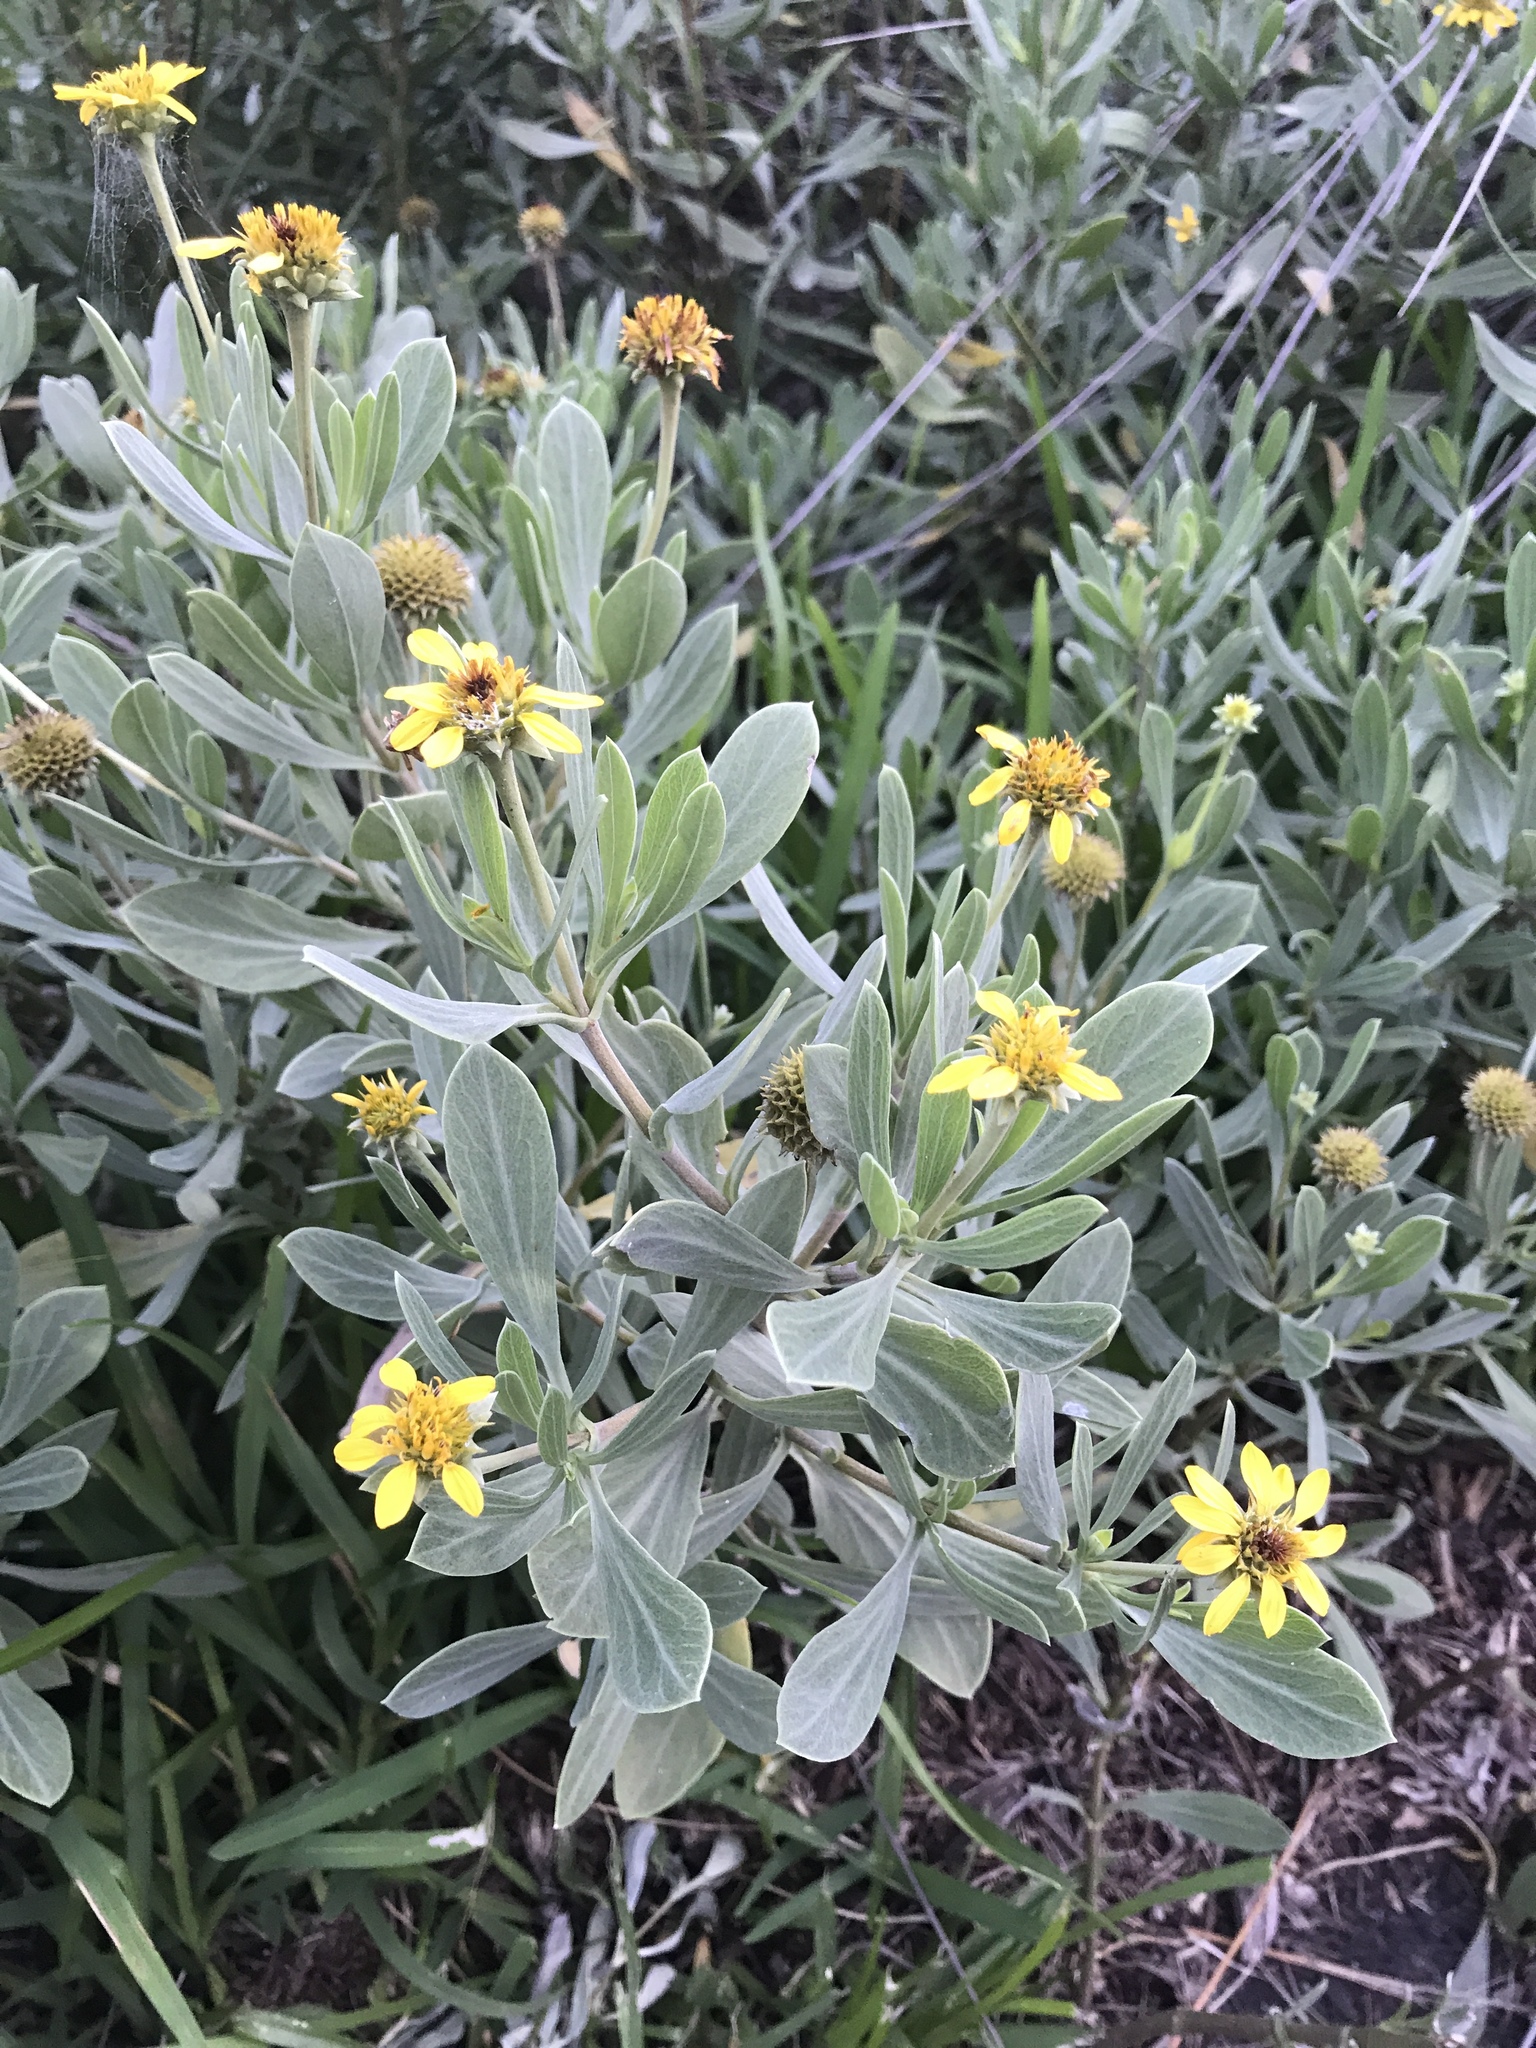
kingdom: Plantae
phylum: Tracheophyta
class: Magnoliopsida
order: Asterales
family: Asteraceae
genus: Borrichia
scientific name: Borrichia frutescens
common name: Sea oxeye
